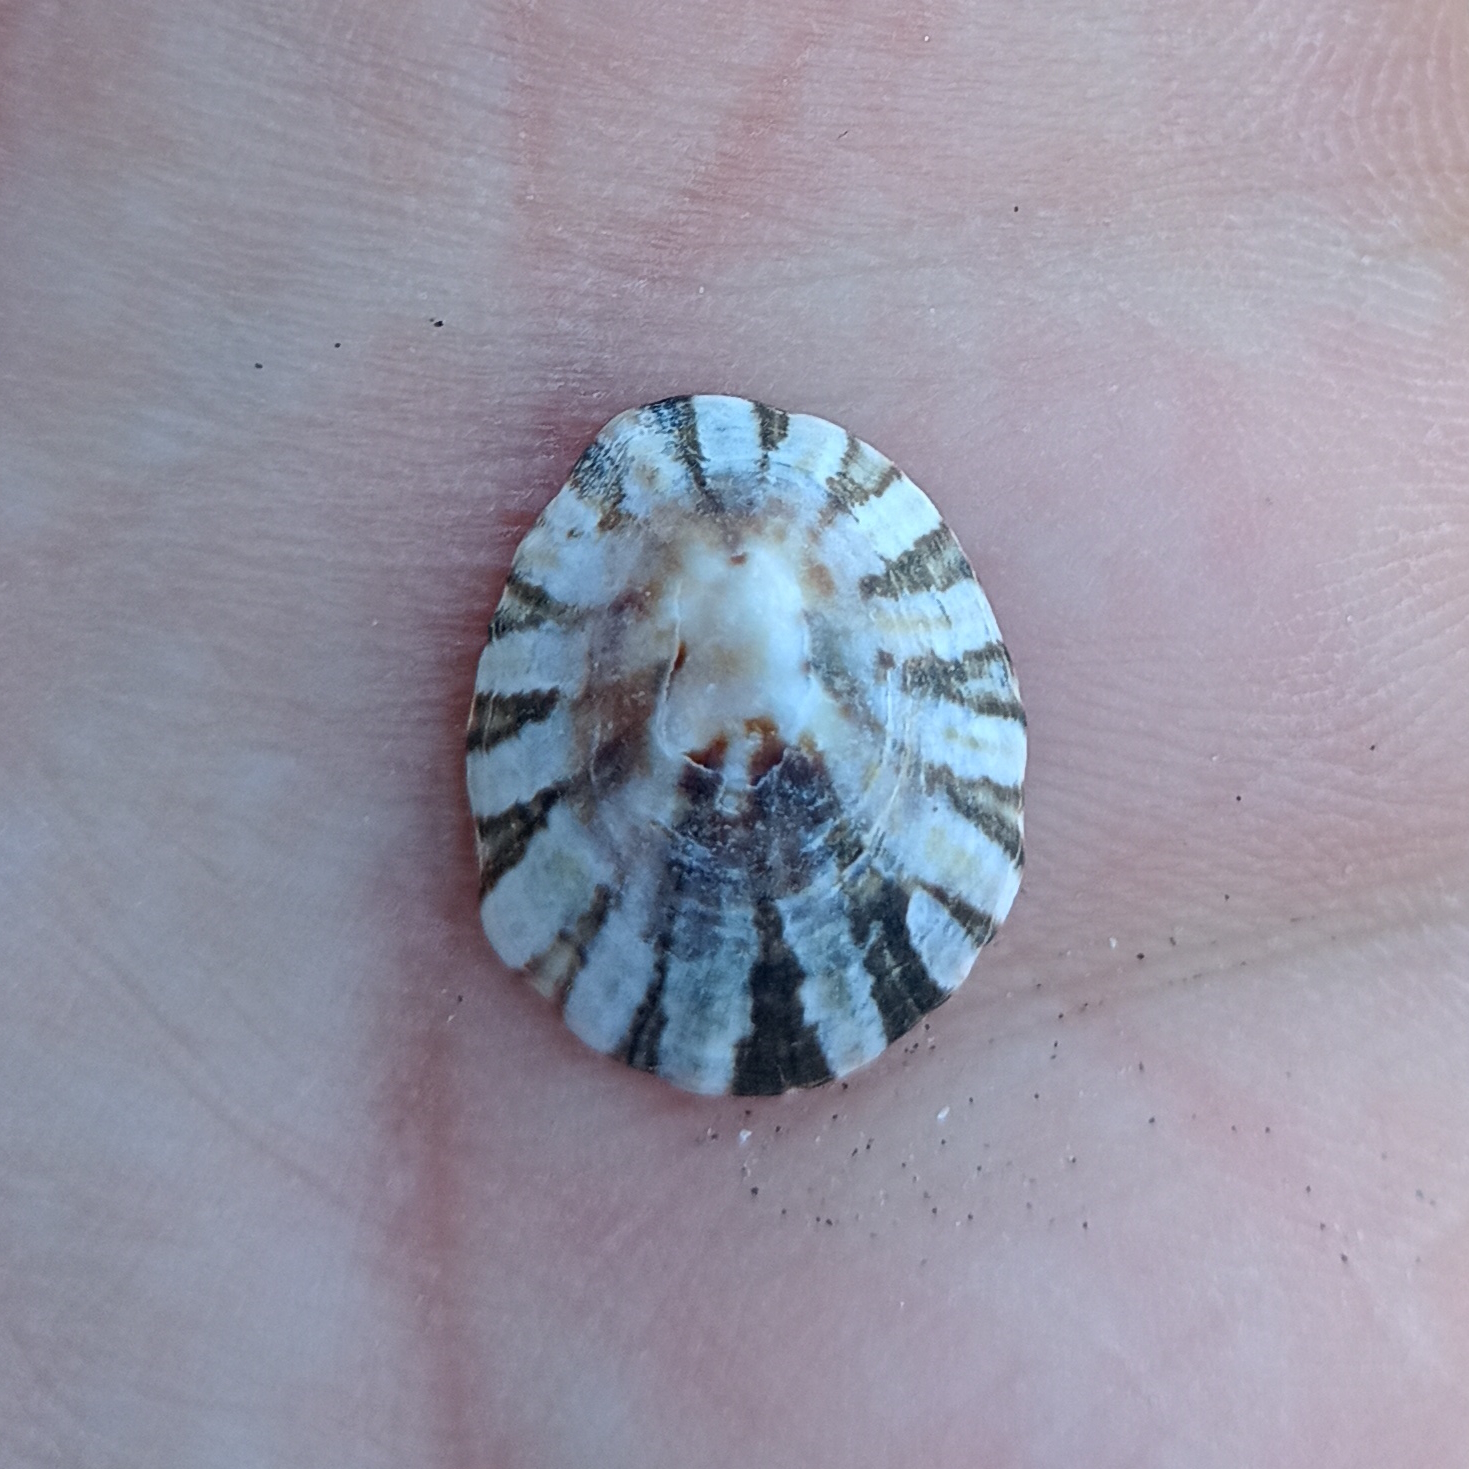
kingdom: Animalia
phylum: Mollusca
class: Gastropoda
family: Lottiidae
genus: Lottia
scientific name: Lottia subrugosa
